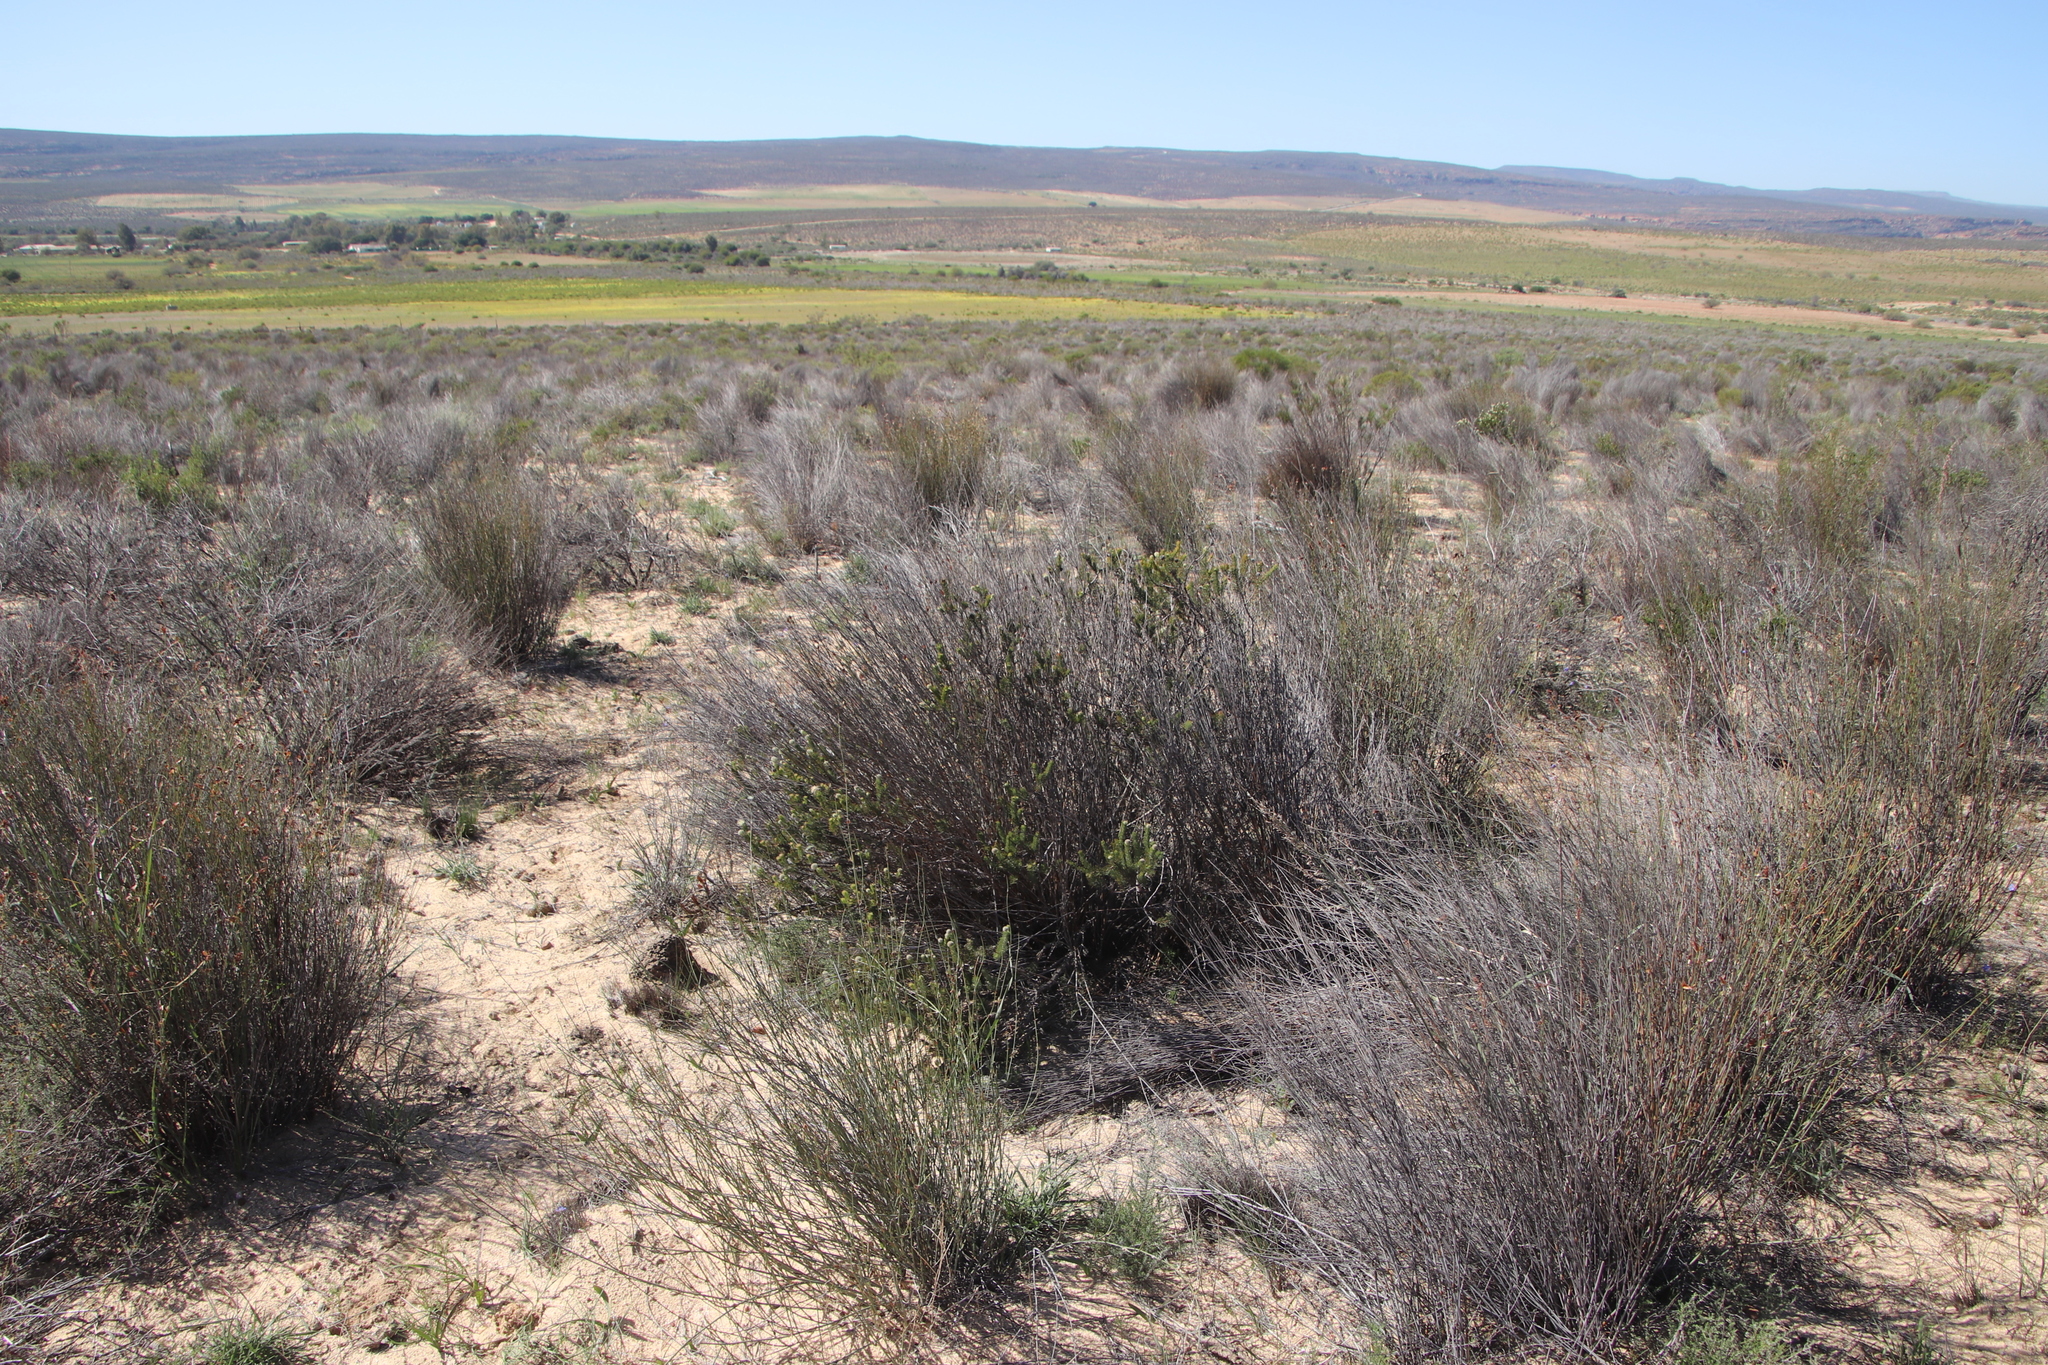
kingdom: Plantae
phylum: Tracheophyta
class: Magnoliopsida
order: Proteales
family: Proteaceae
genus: Serruria
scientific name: Serruria millefolia
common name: Millileaf spiderhead
